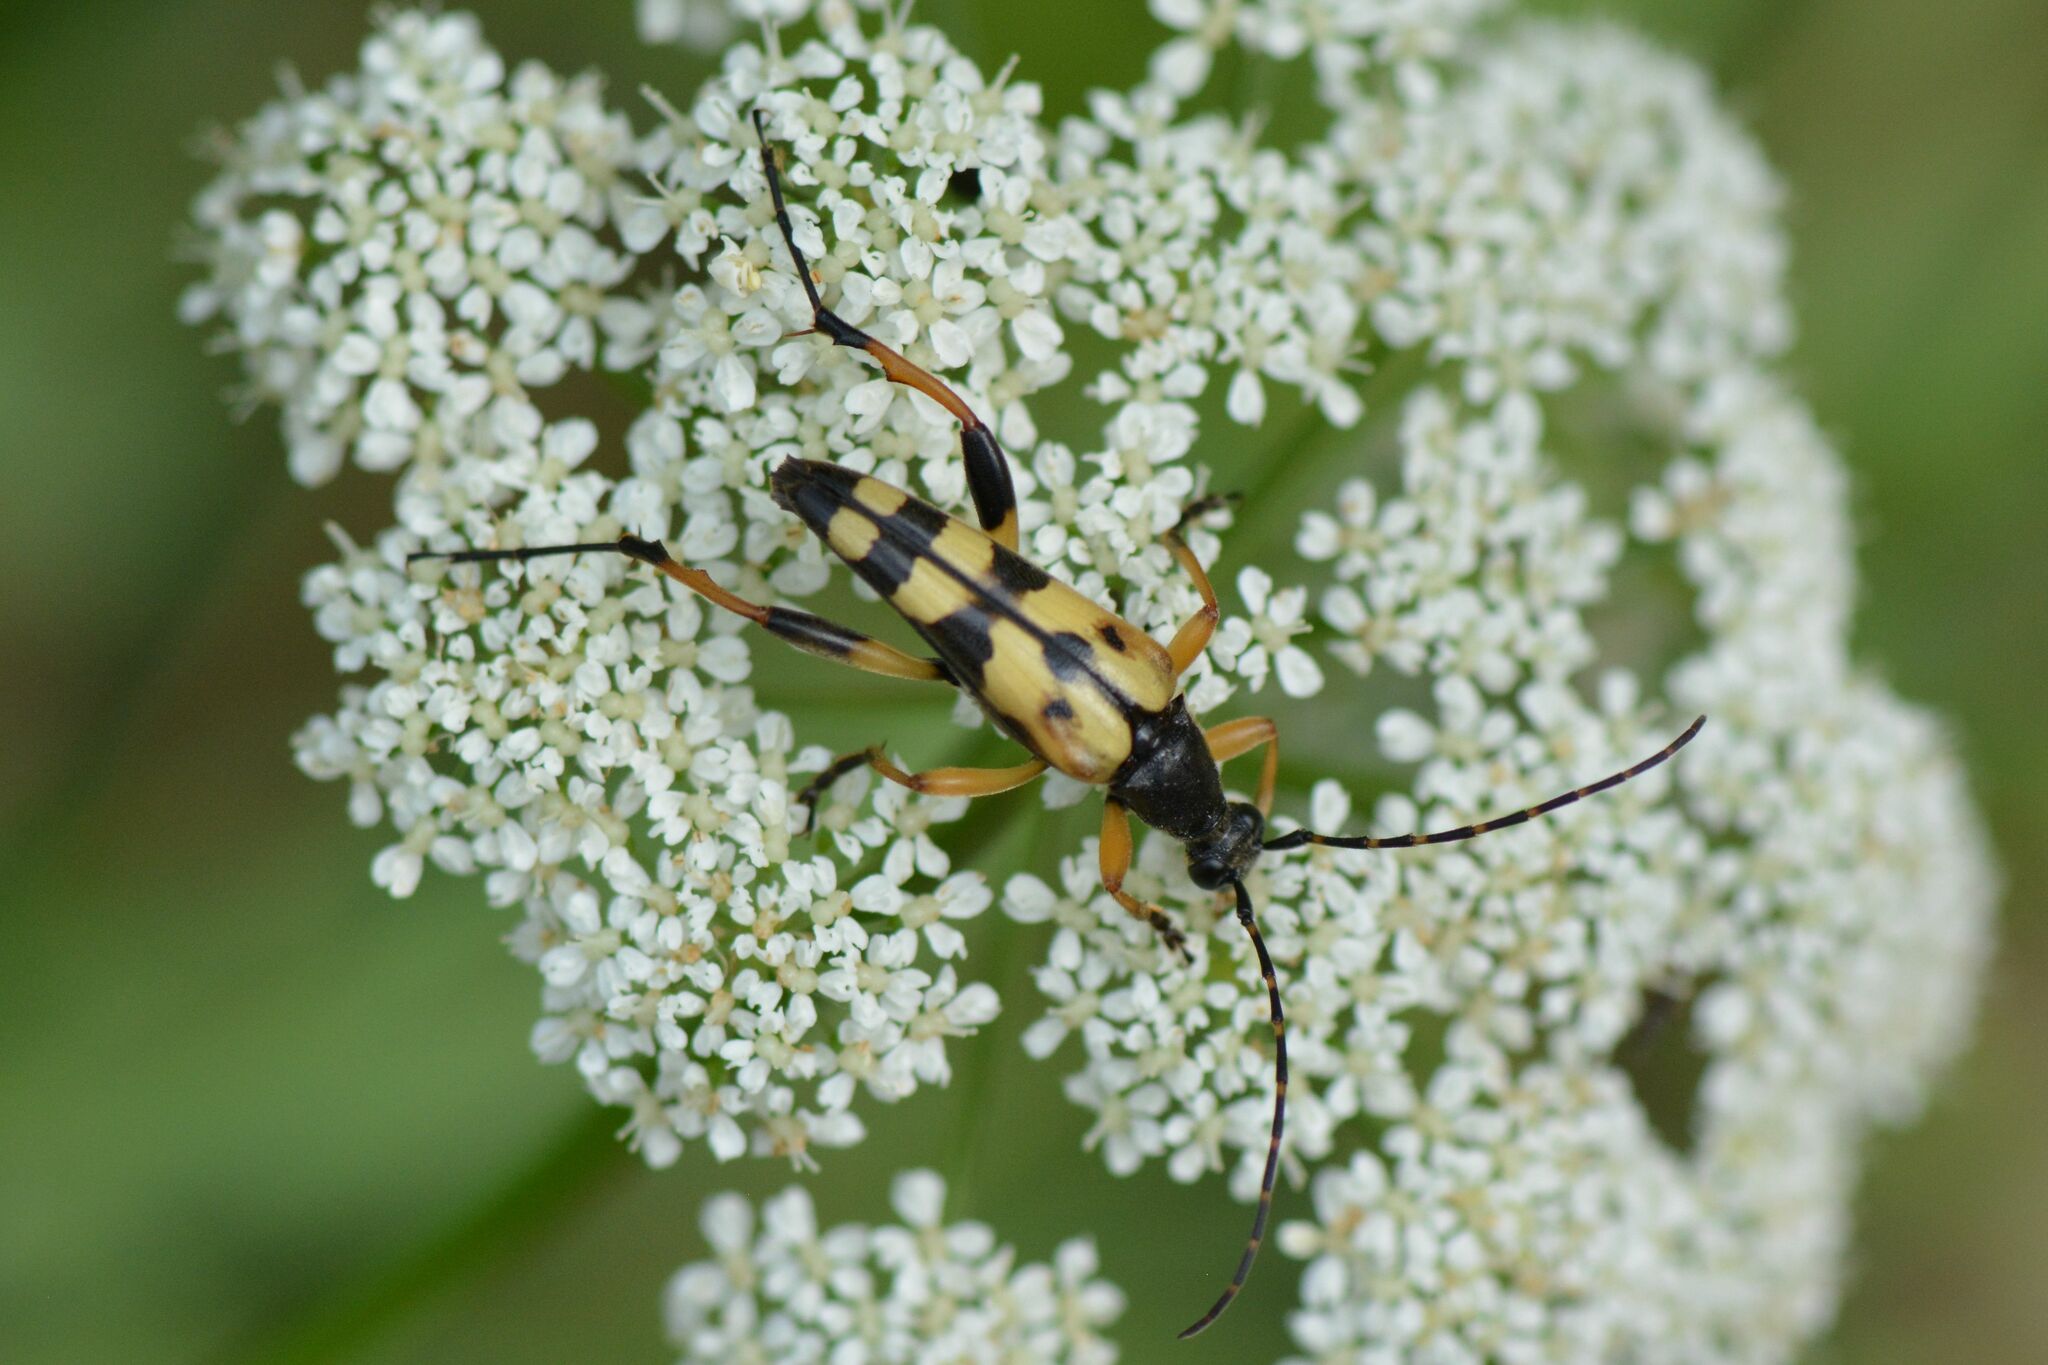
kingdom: Animalia
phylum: Arthropoda
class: Insecta
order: Coleoptera
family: Cerambycidae
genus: Rutpela
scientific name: Rutpela maculata
